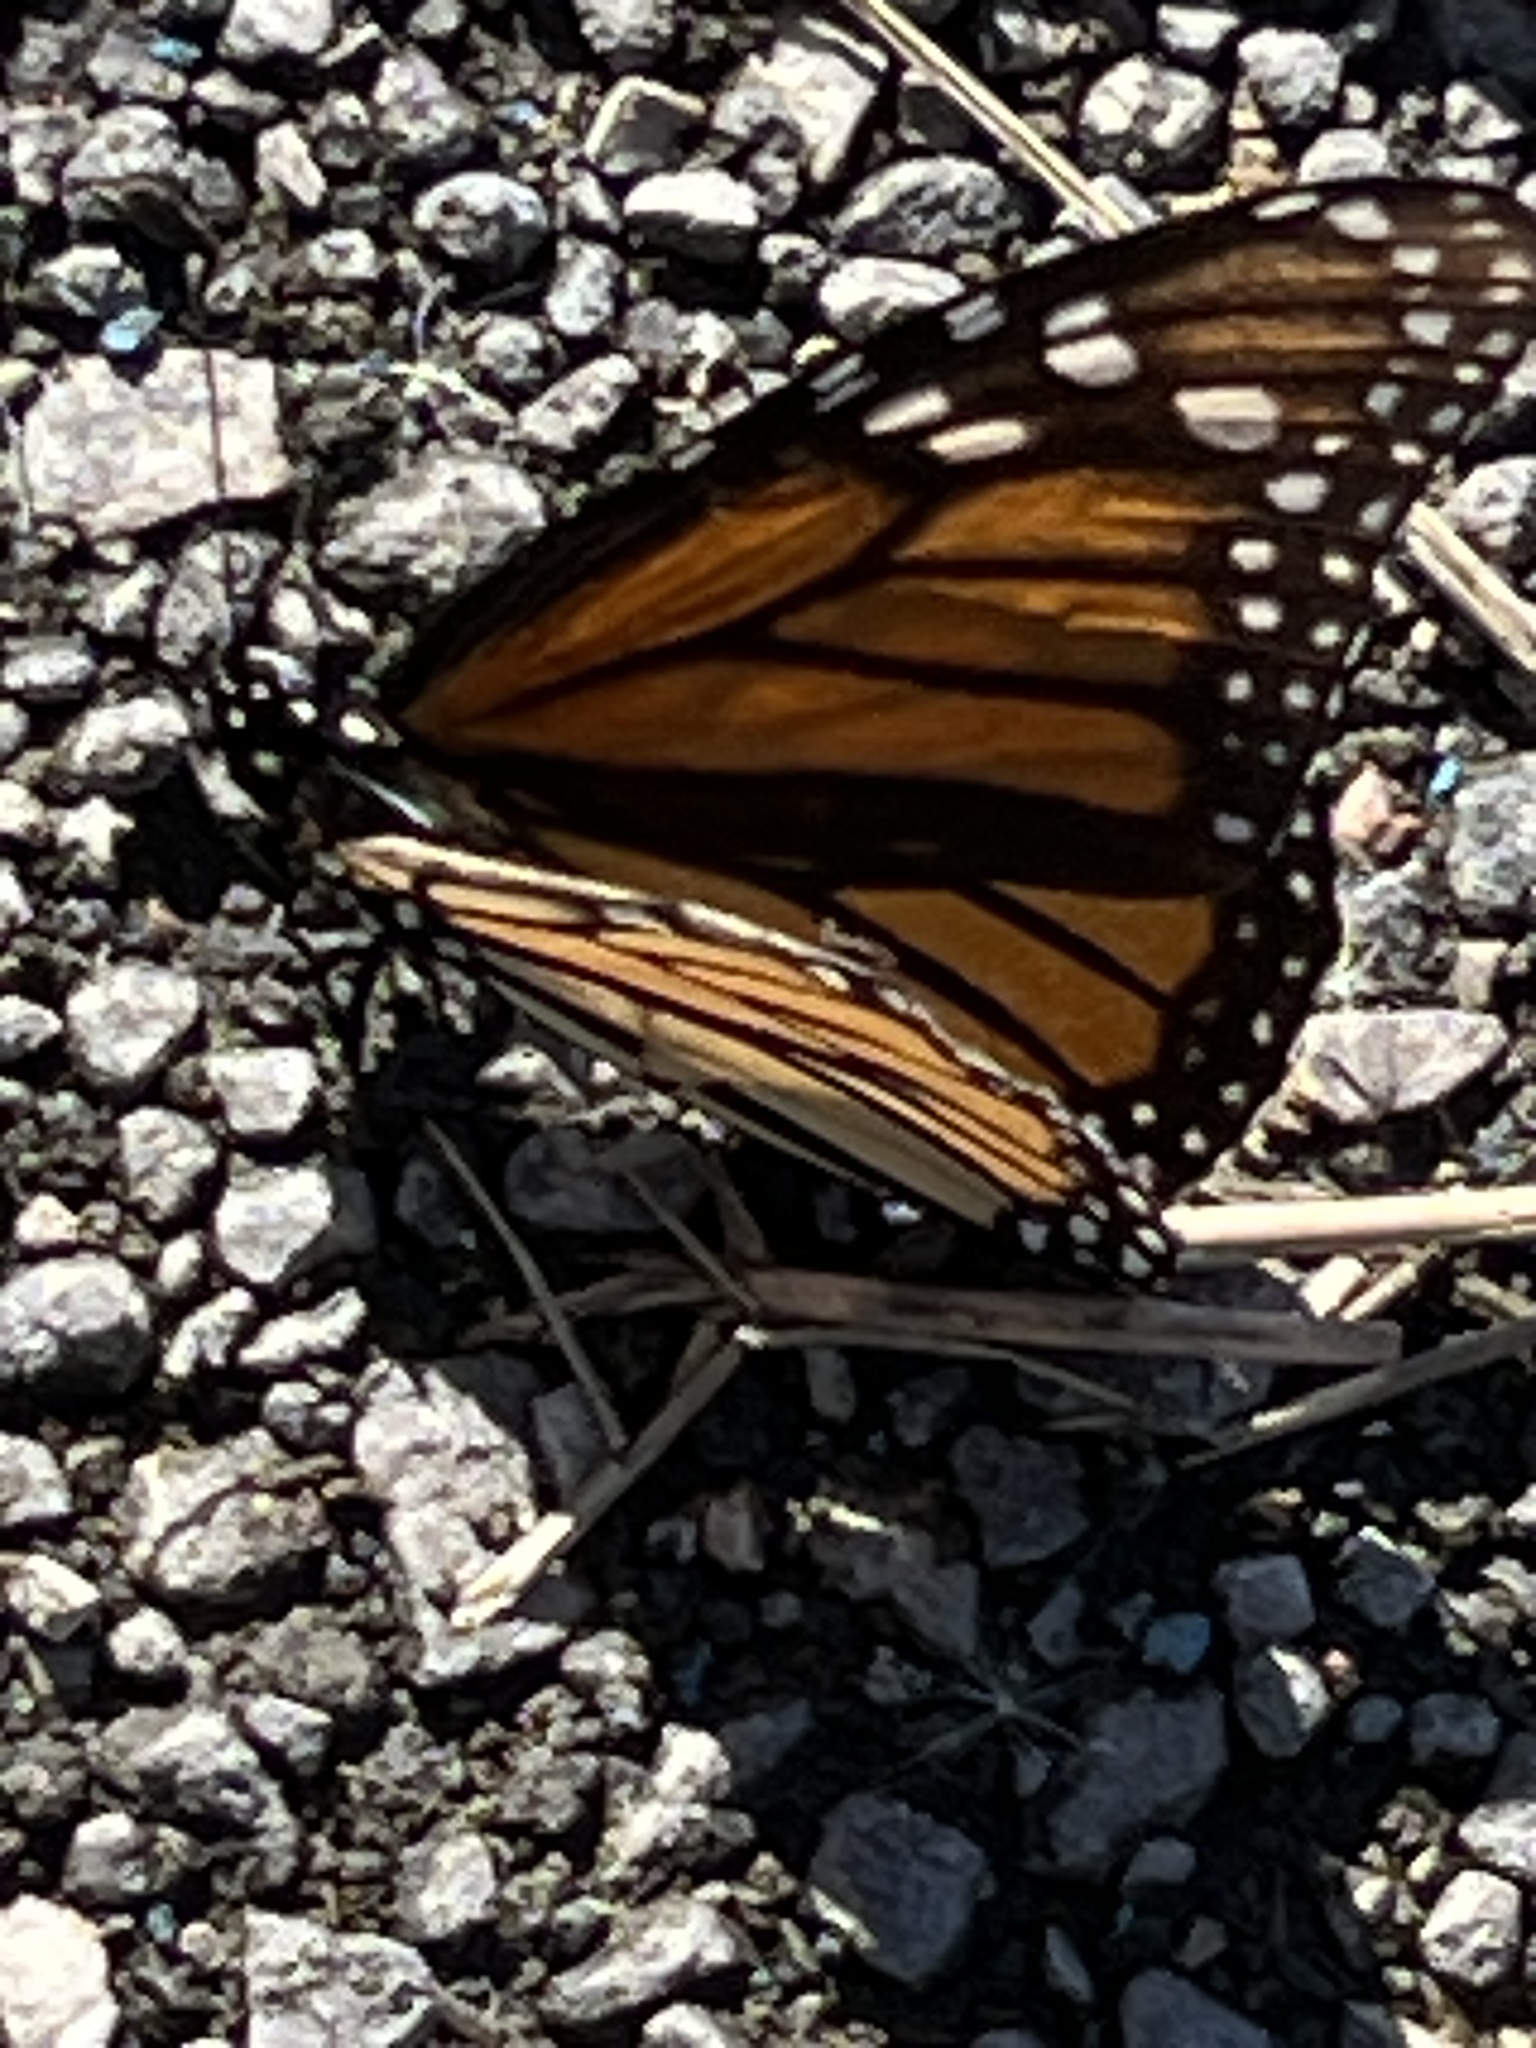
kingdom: Animalia
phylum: Arthropoda
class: Insecta
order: Lepidoptera
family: Nymphalidae
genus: Danaus
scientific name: Danaus plexippus
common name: Monarch
